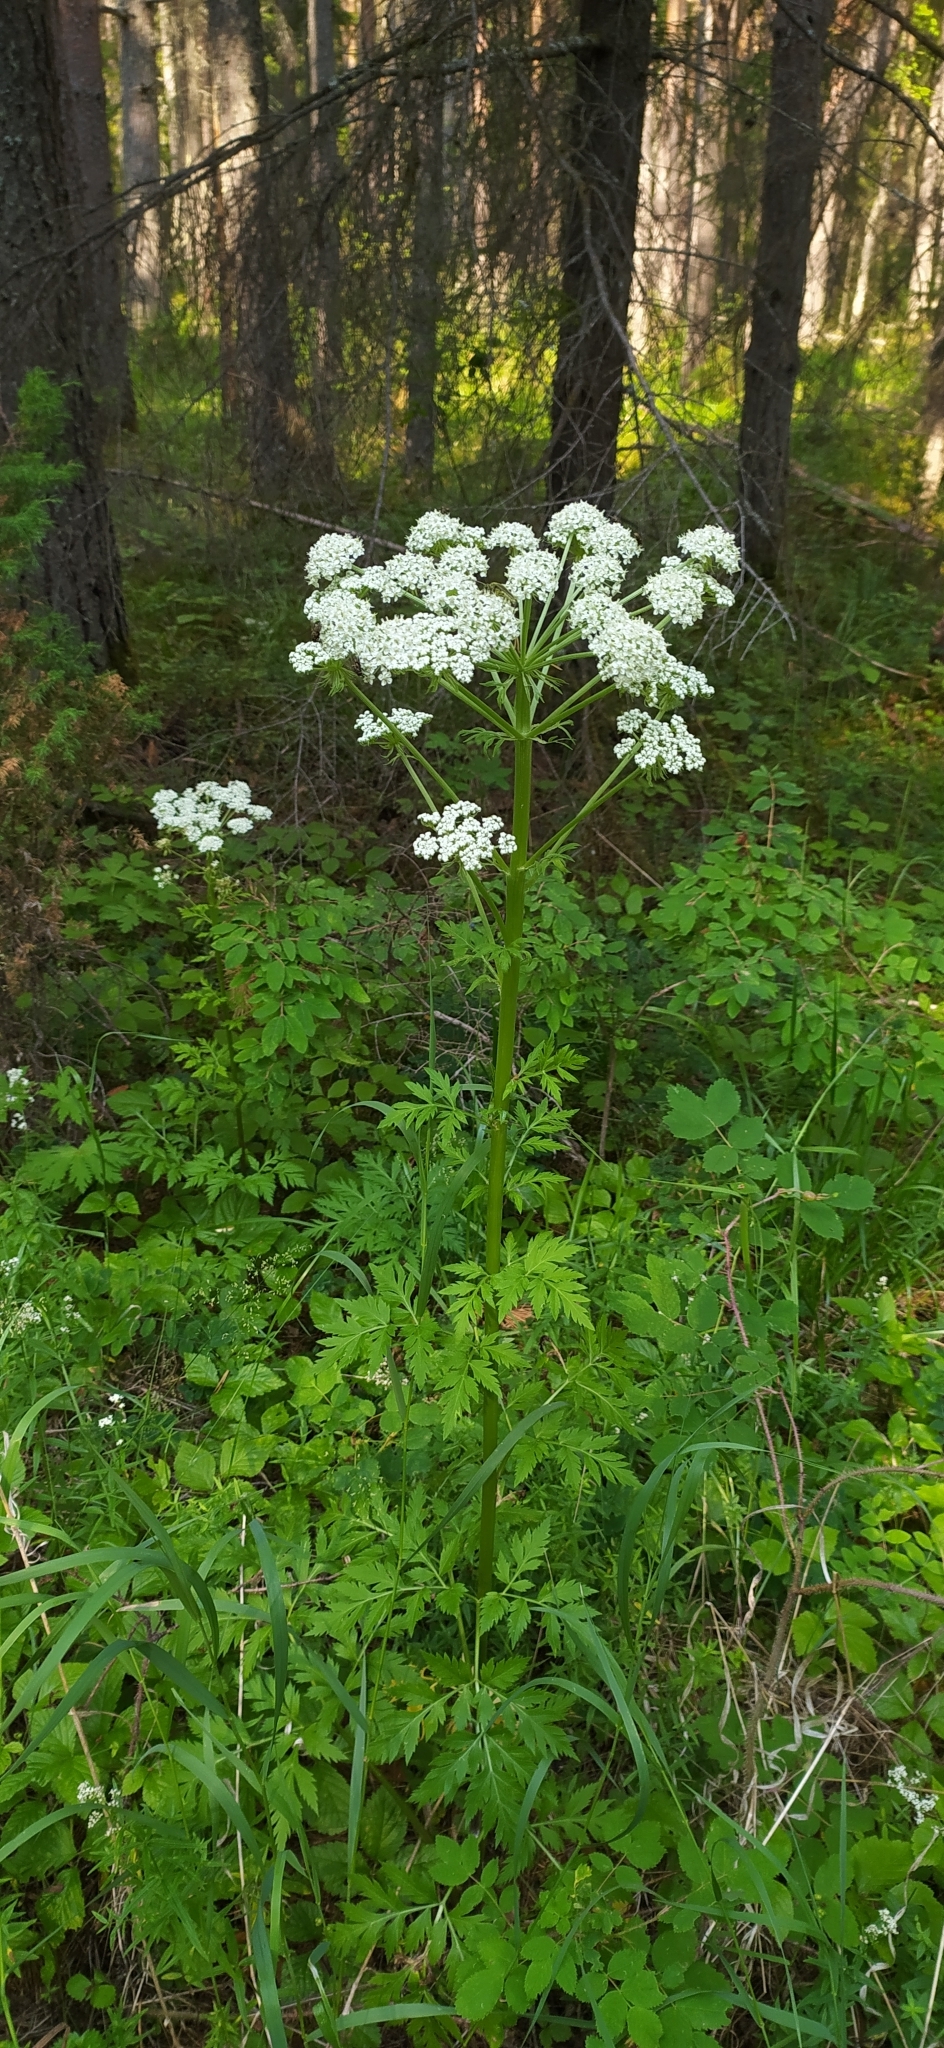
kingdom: Plantae
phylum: Tracheophyta
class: Magnoliopsida
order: Apiales
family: Apiaceae
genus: Pleurospermum
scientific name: Pleurospermum uralense
